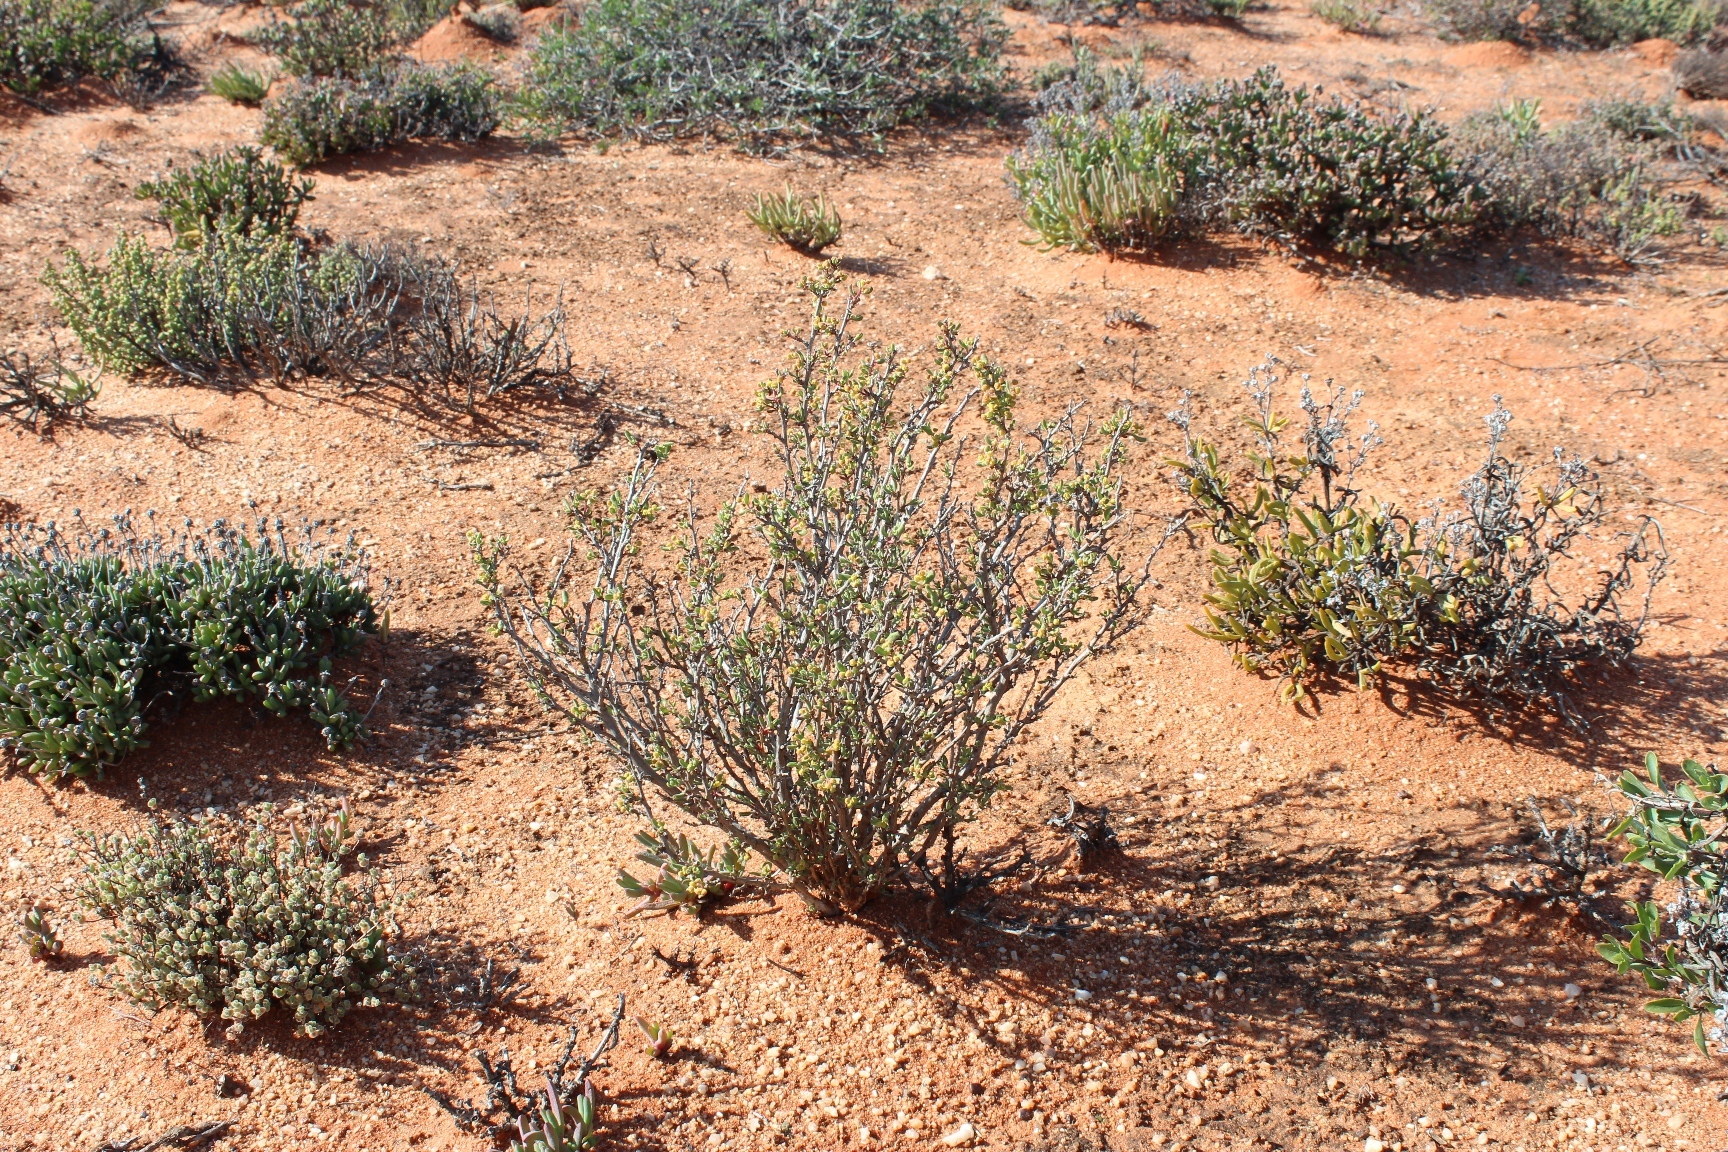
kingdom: Plantae
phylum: Tracheophyta
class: Magnoliopsida
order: Caryophyllales
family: Aizoaceae
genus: Tetragonia
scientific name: Tetragonia fruticosa
